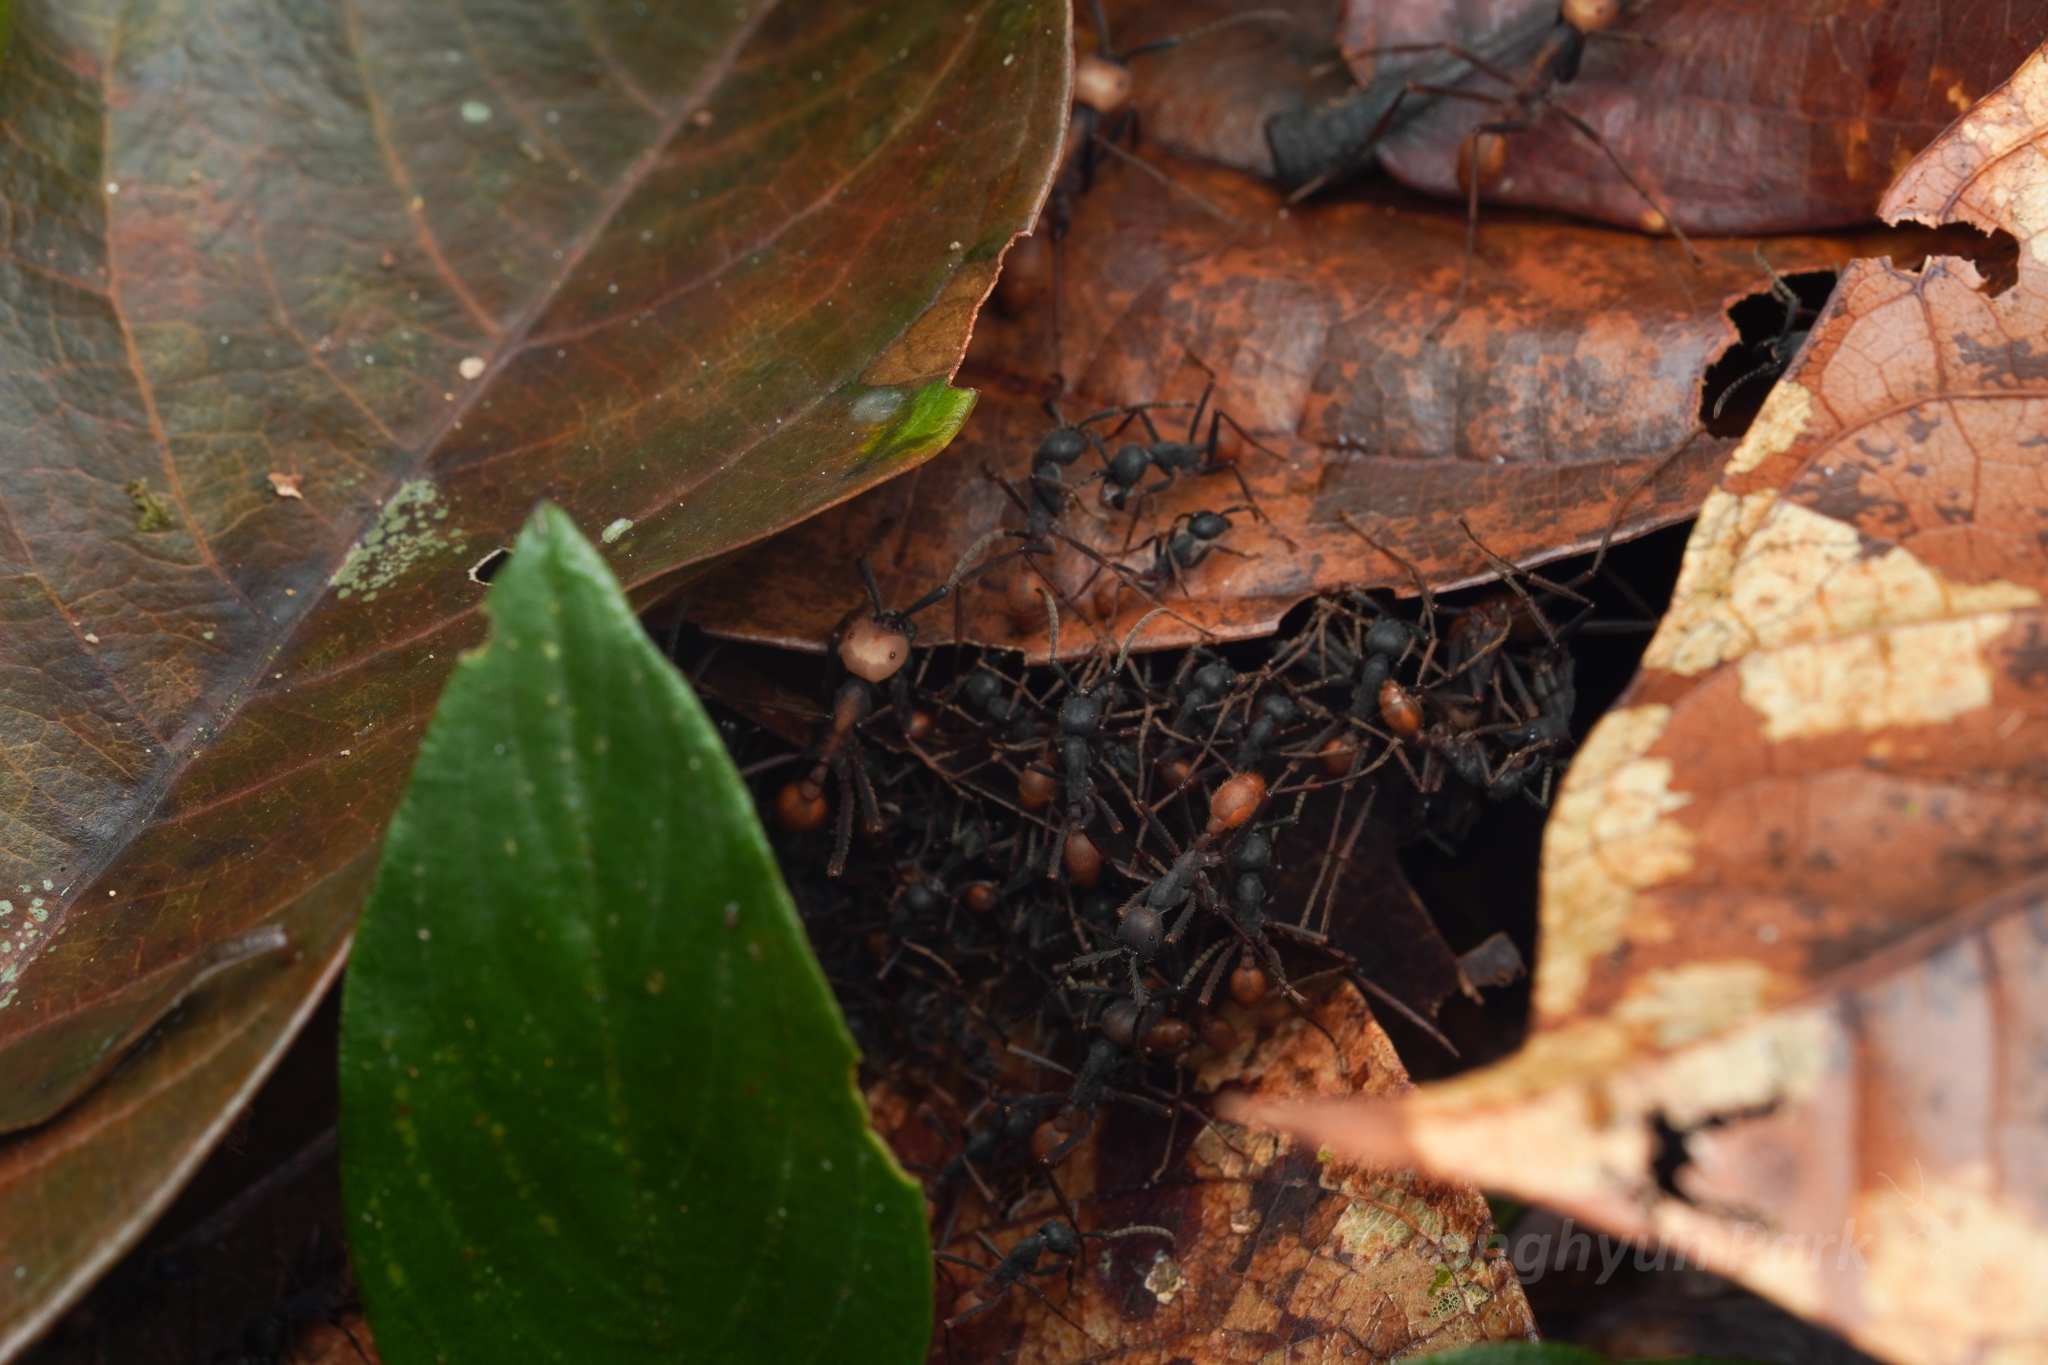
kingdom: Animalia
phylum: Arthropoda
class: Insecta
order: Hymenoptera
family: Formicidae
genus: Eciton
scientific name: Eciton burchellii
